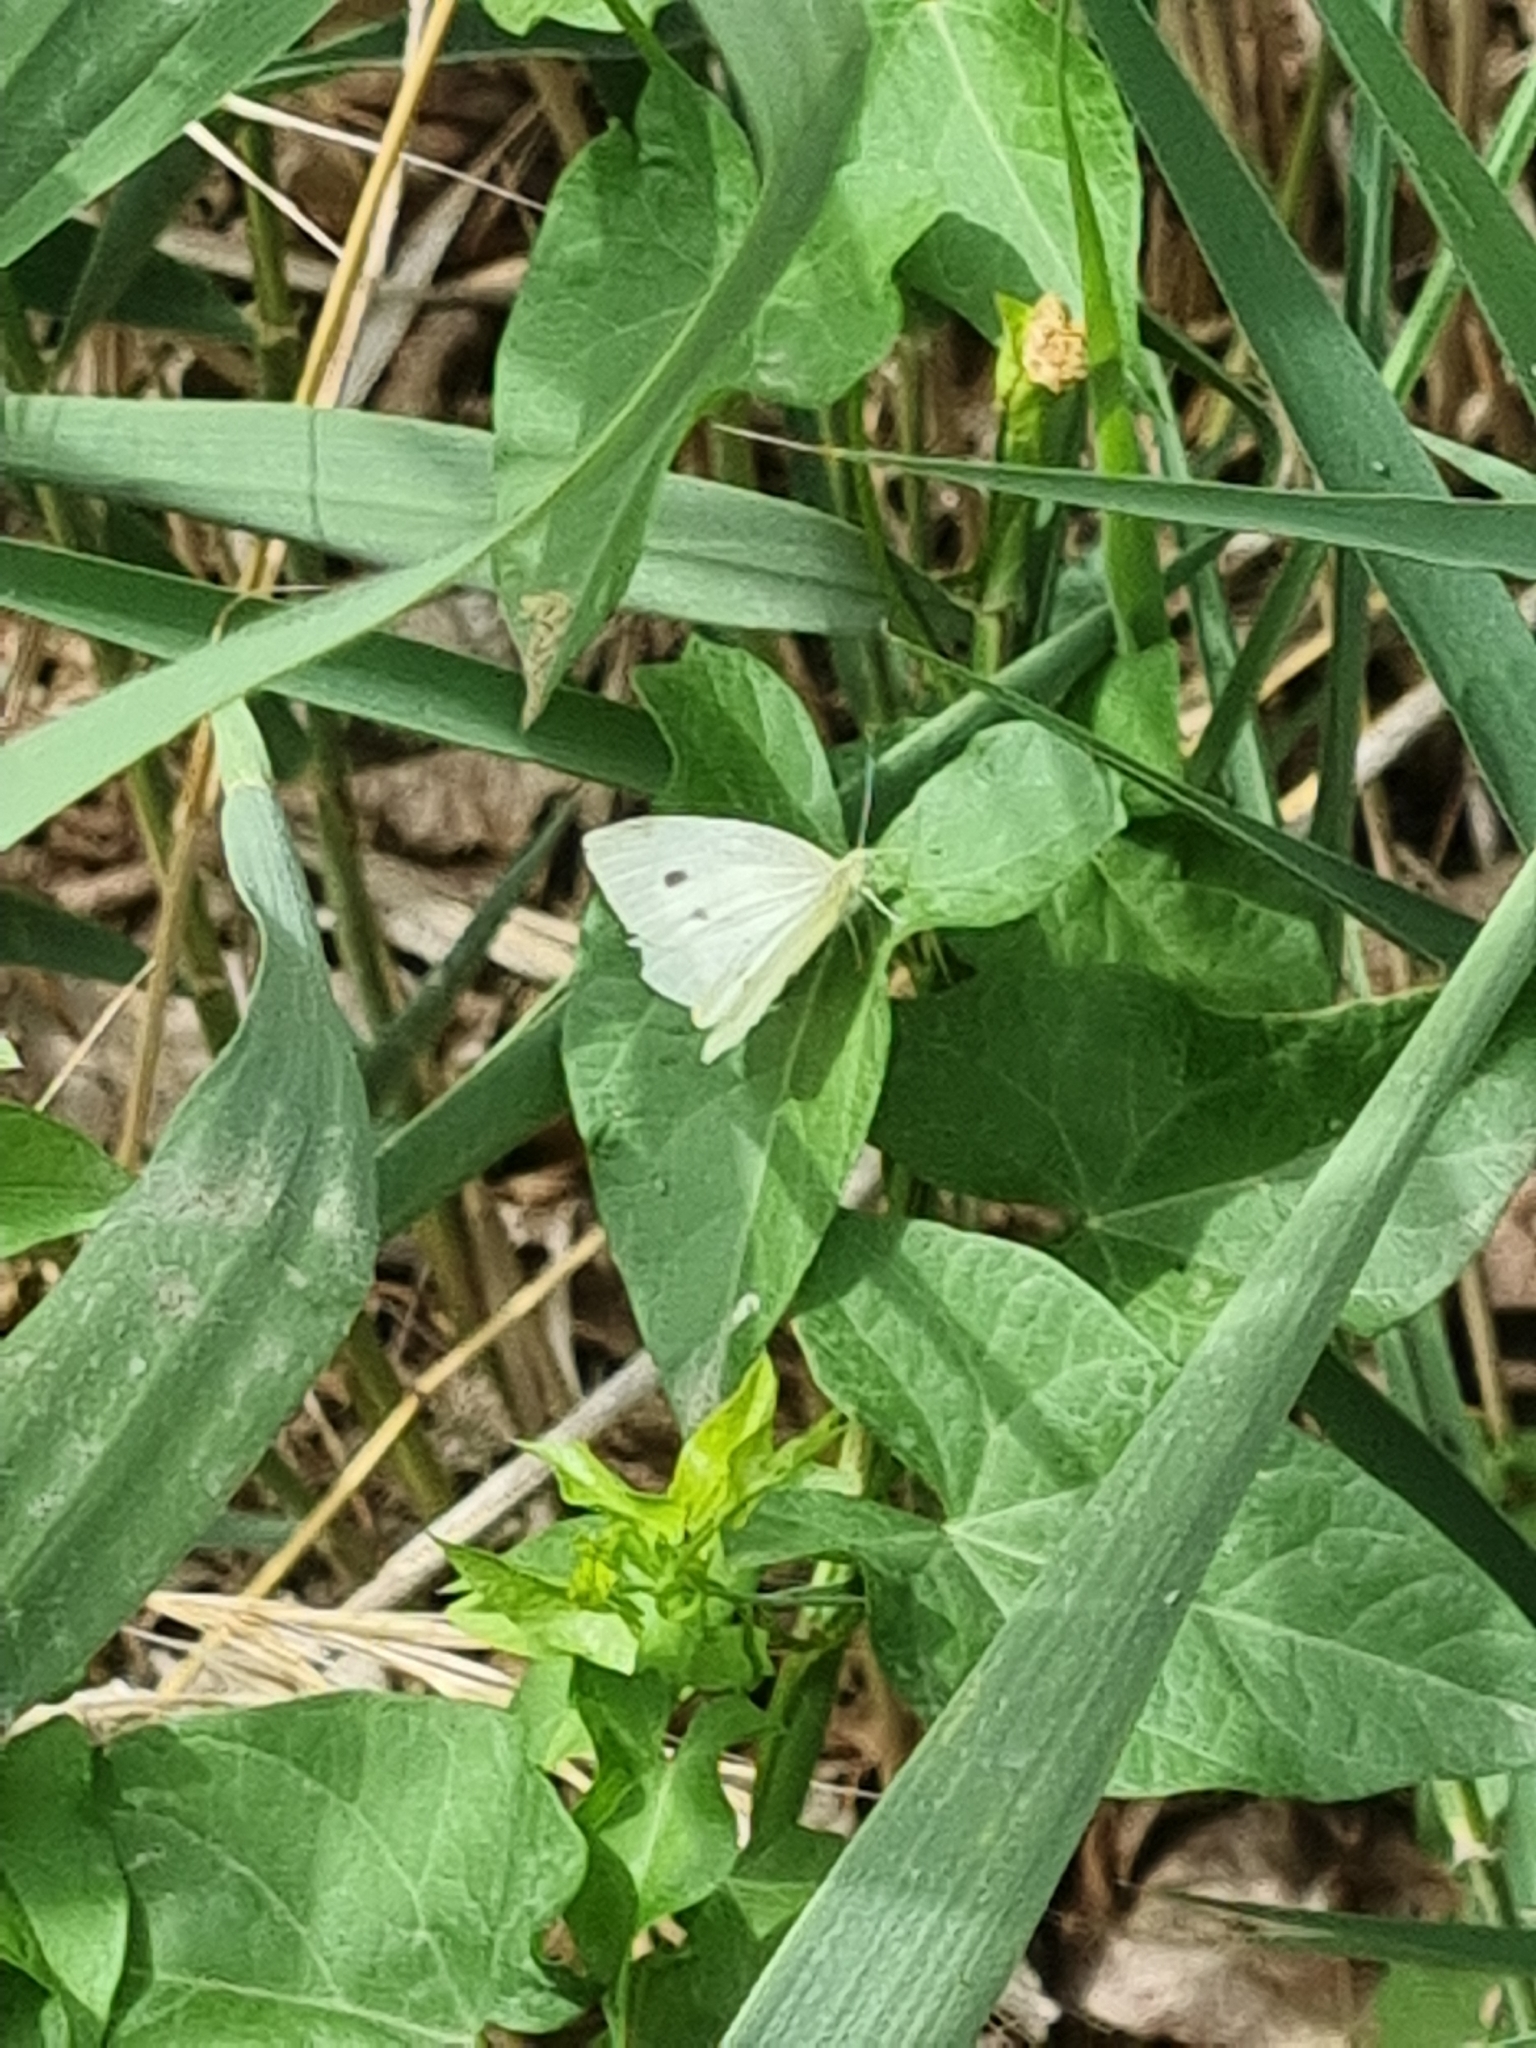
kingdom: Animalia
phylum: Arthropoda
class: Insecta
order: Lepidoptera
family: Pieridae
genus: Pieris
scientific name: Pieris rapae
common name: Small white
